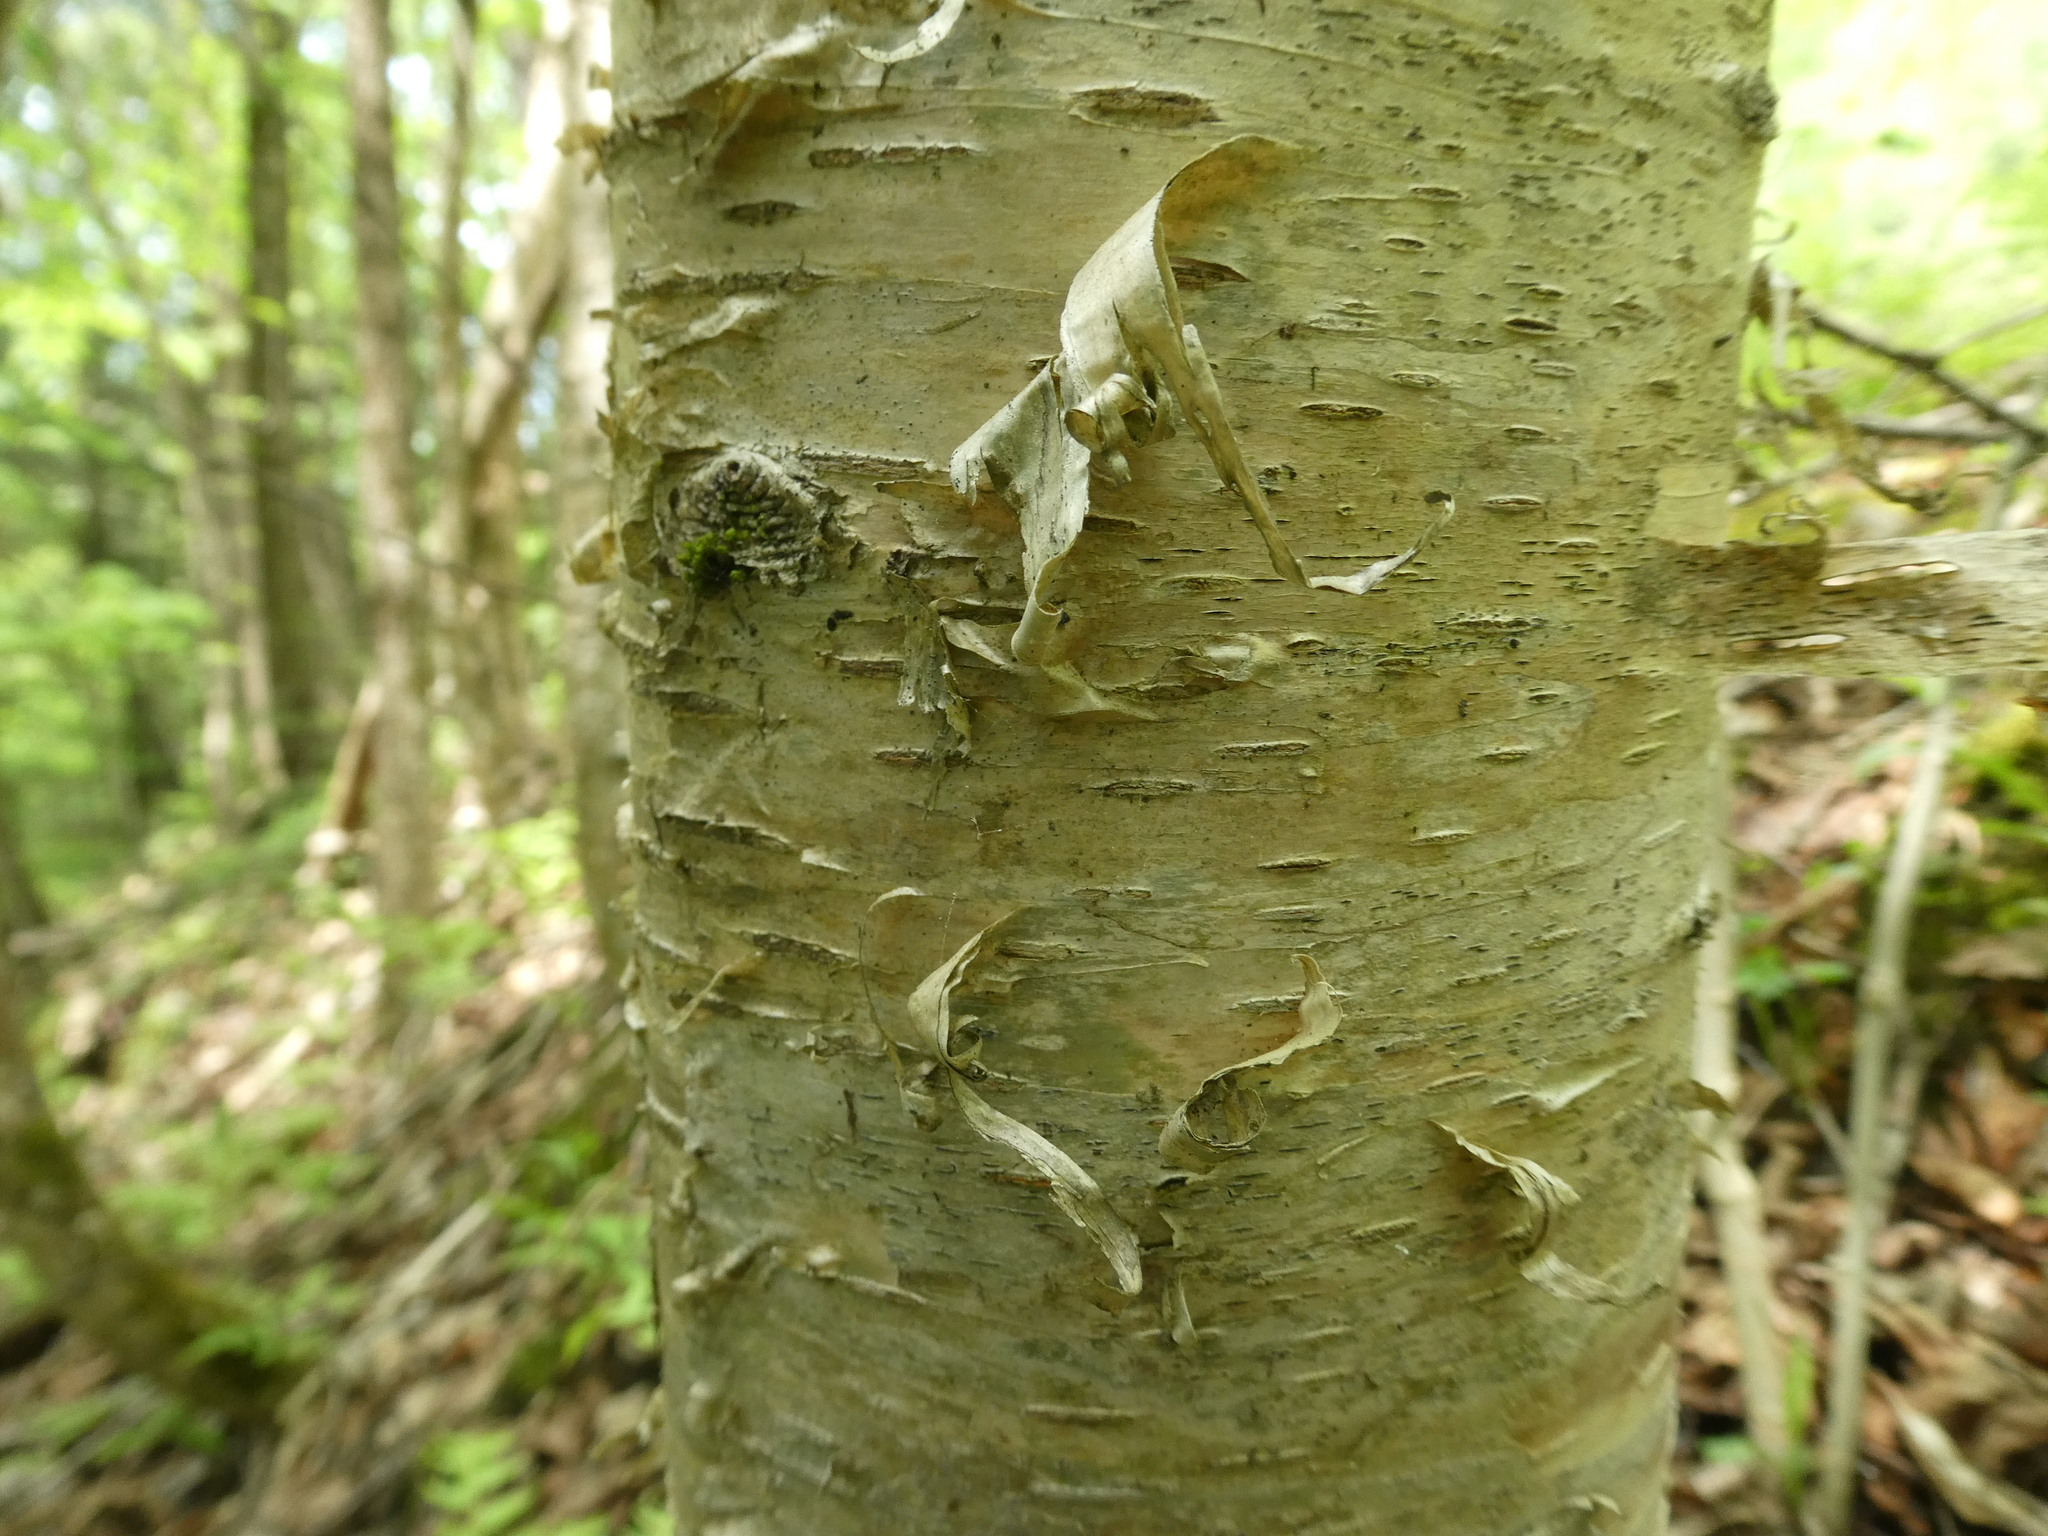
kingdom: Plantae
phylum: Tracheophyta
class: Magnoliopsida
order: Fagales
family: Betulaceae
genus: Betula
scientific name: Betula alleghaniensis
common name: Yellow birch
